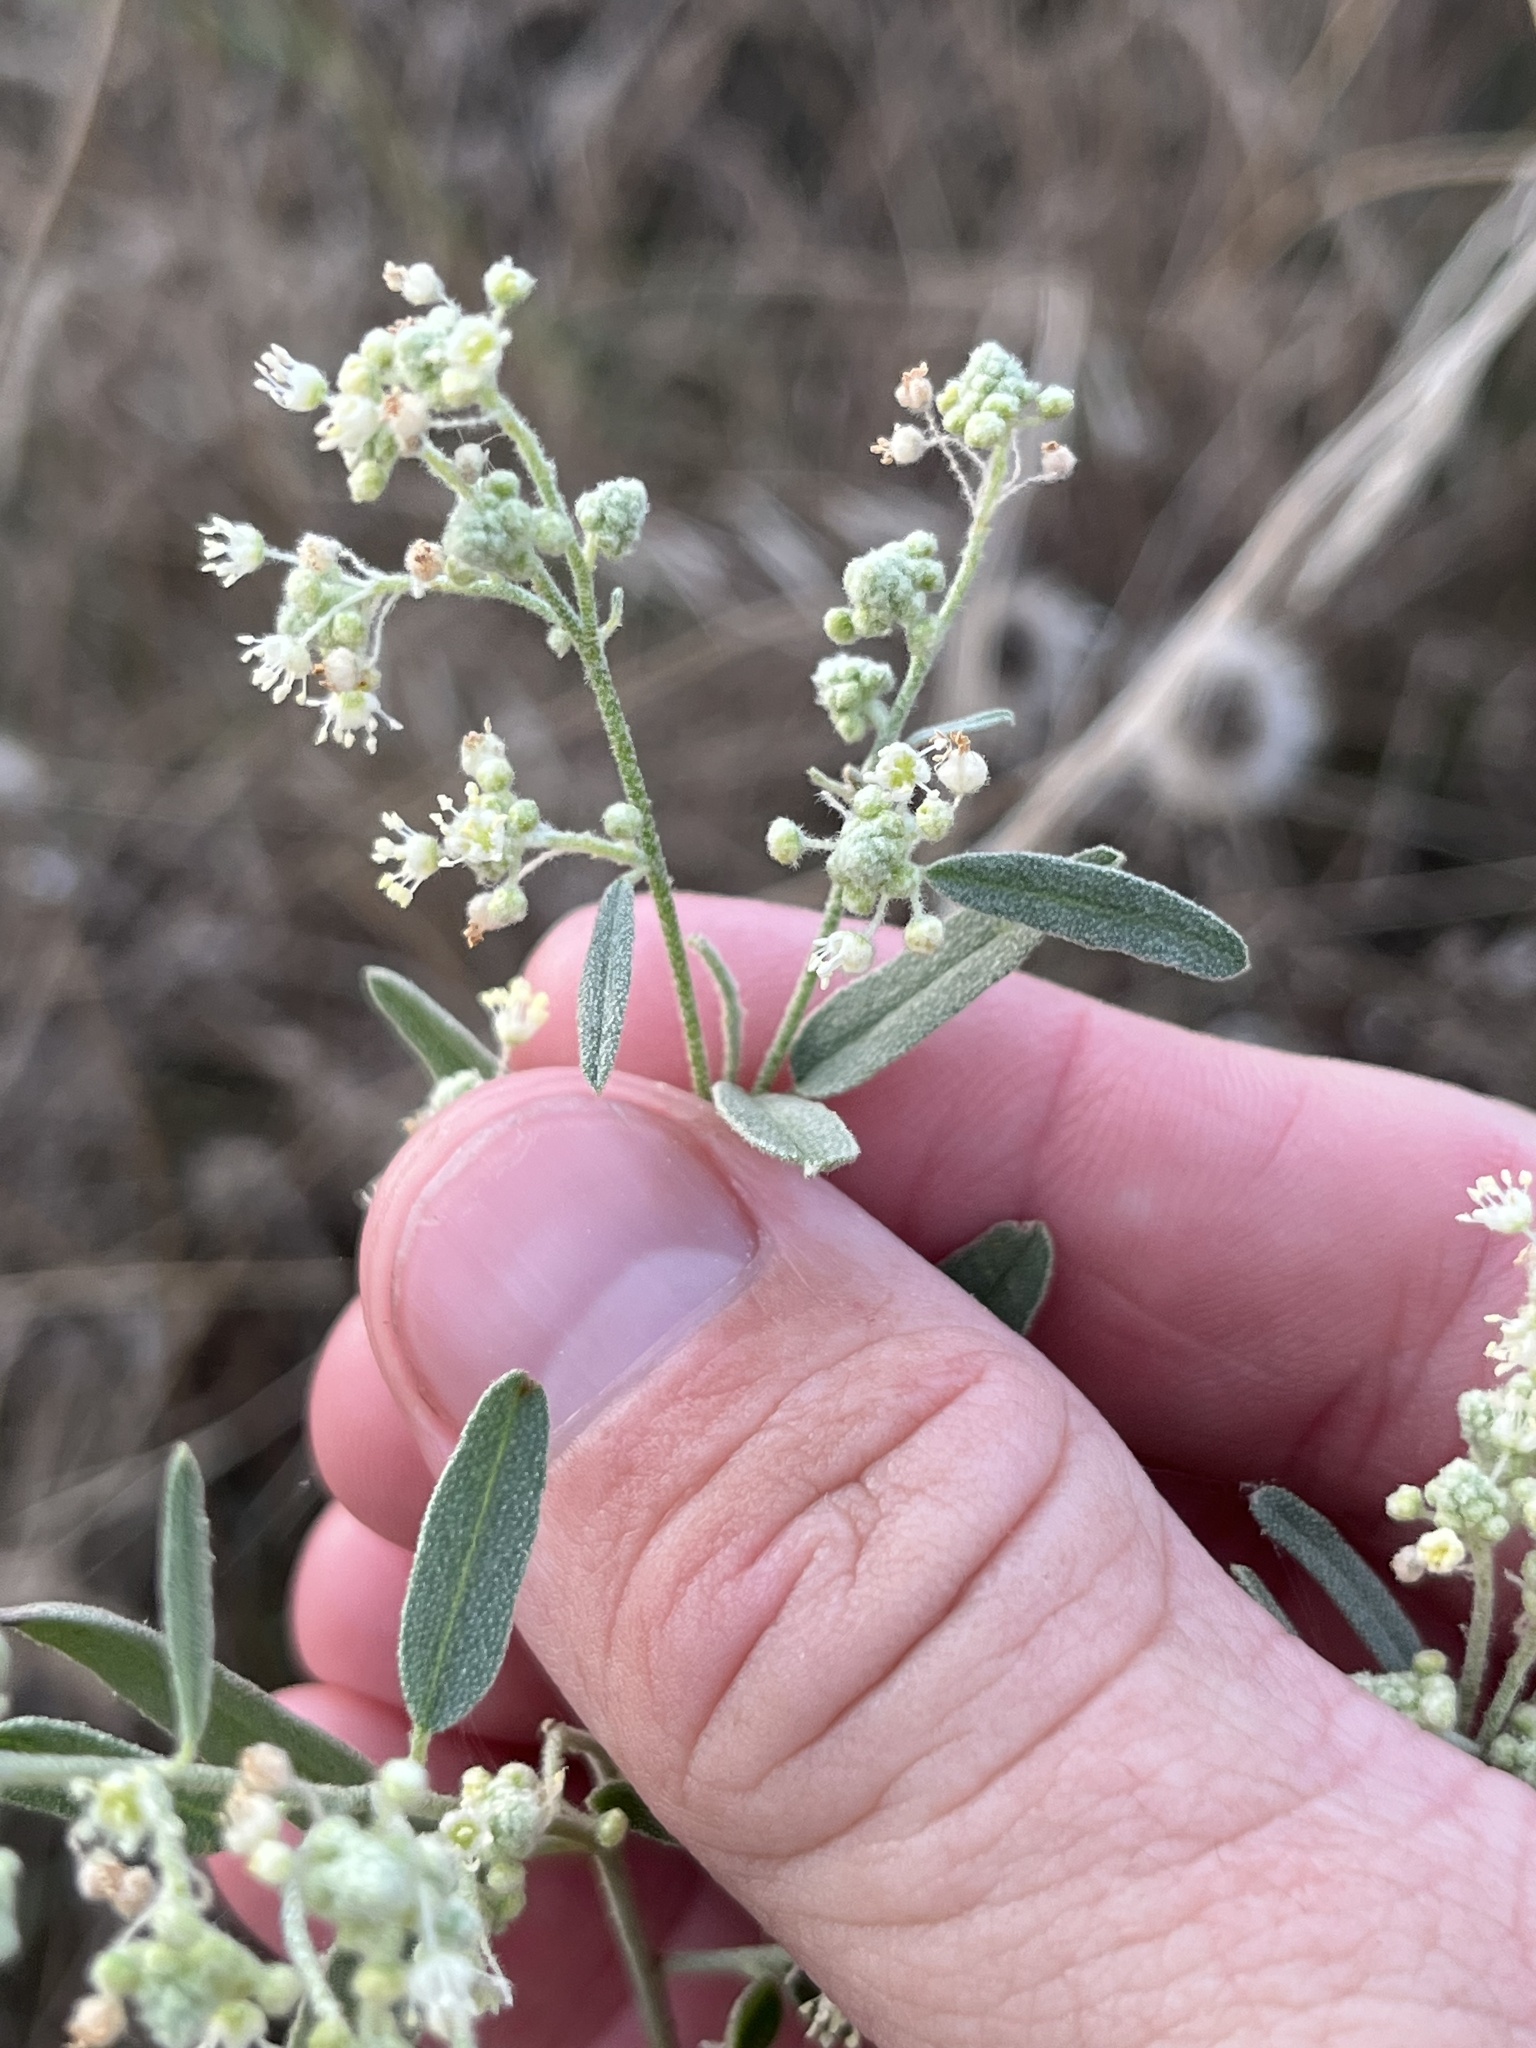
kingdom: Plantae
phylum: Tracheophyta
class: Magnoliopsida
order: Malpighiales
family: Euphorbiaceae
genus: Croton
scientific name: Croton texensis
